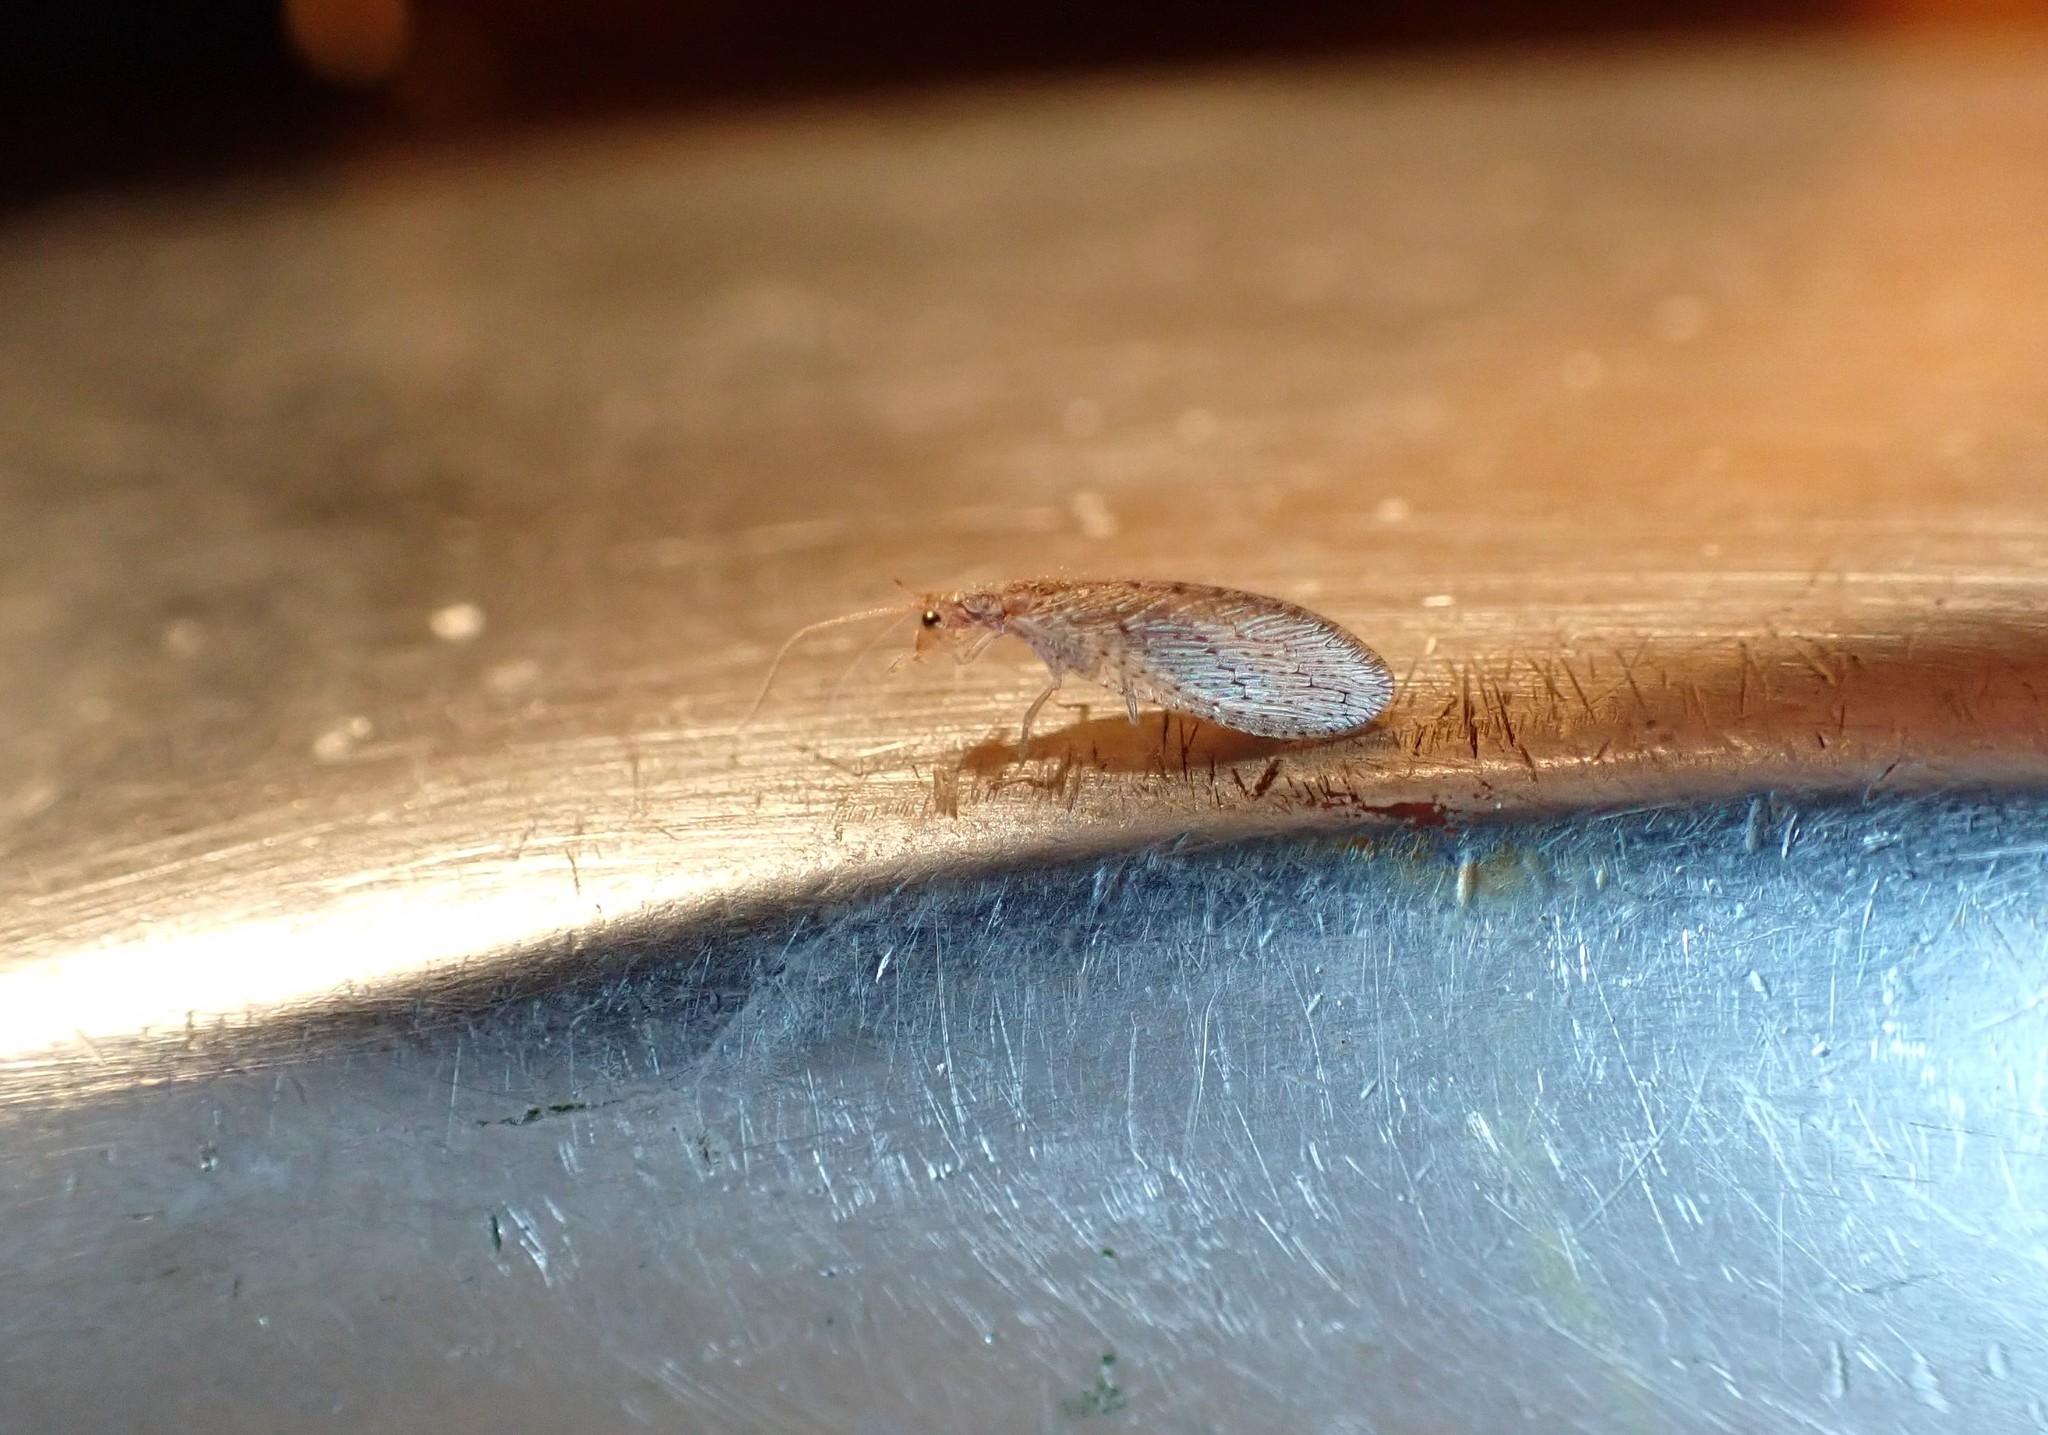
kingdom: Animalia
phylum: Arthropoda
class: Insecta
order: Neuroptera
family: Hemerobiidae
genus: Micromus
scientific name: Micromus tasmaniae
